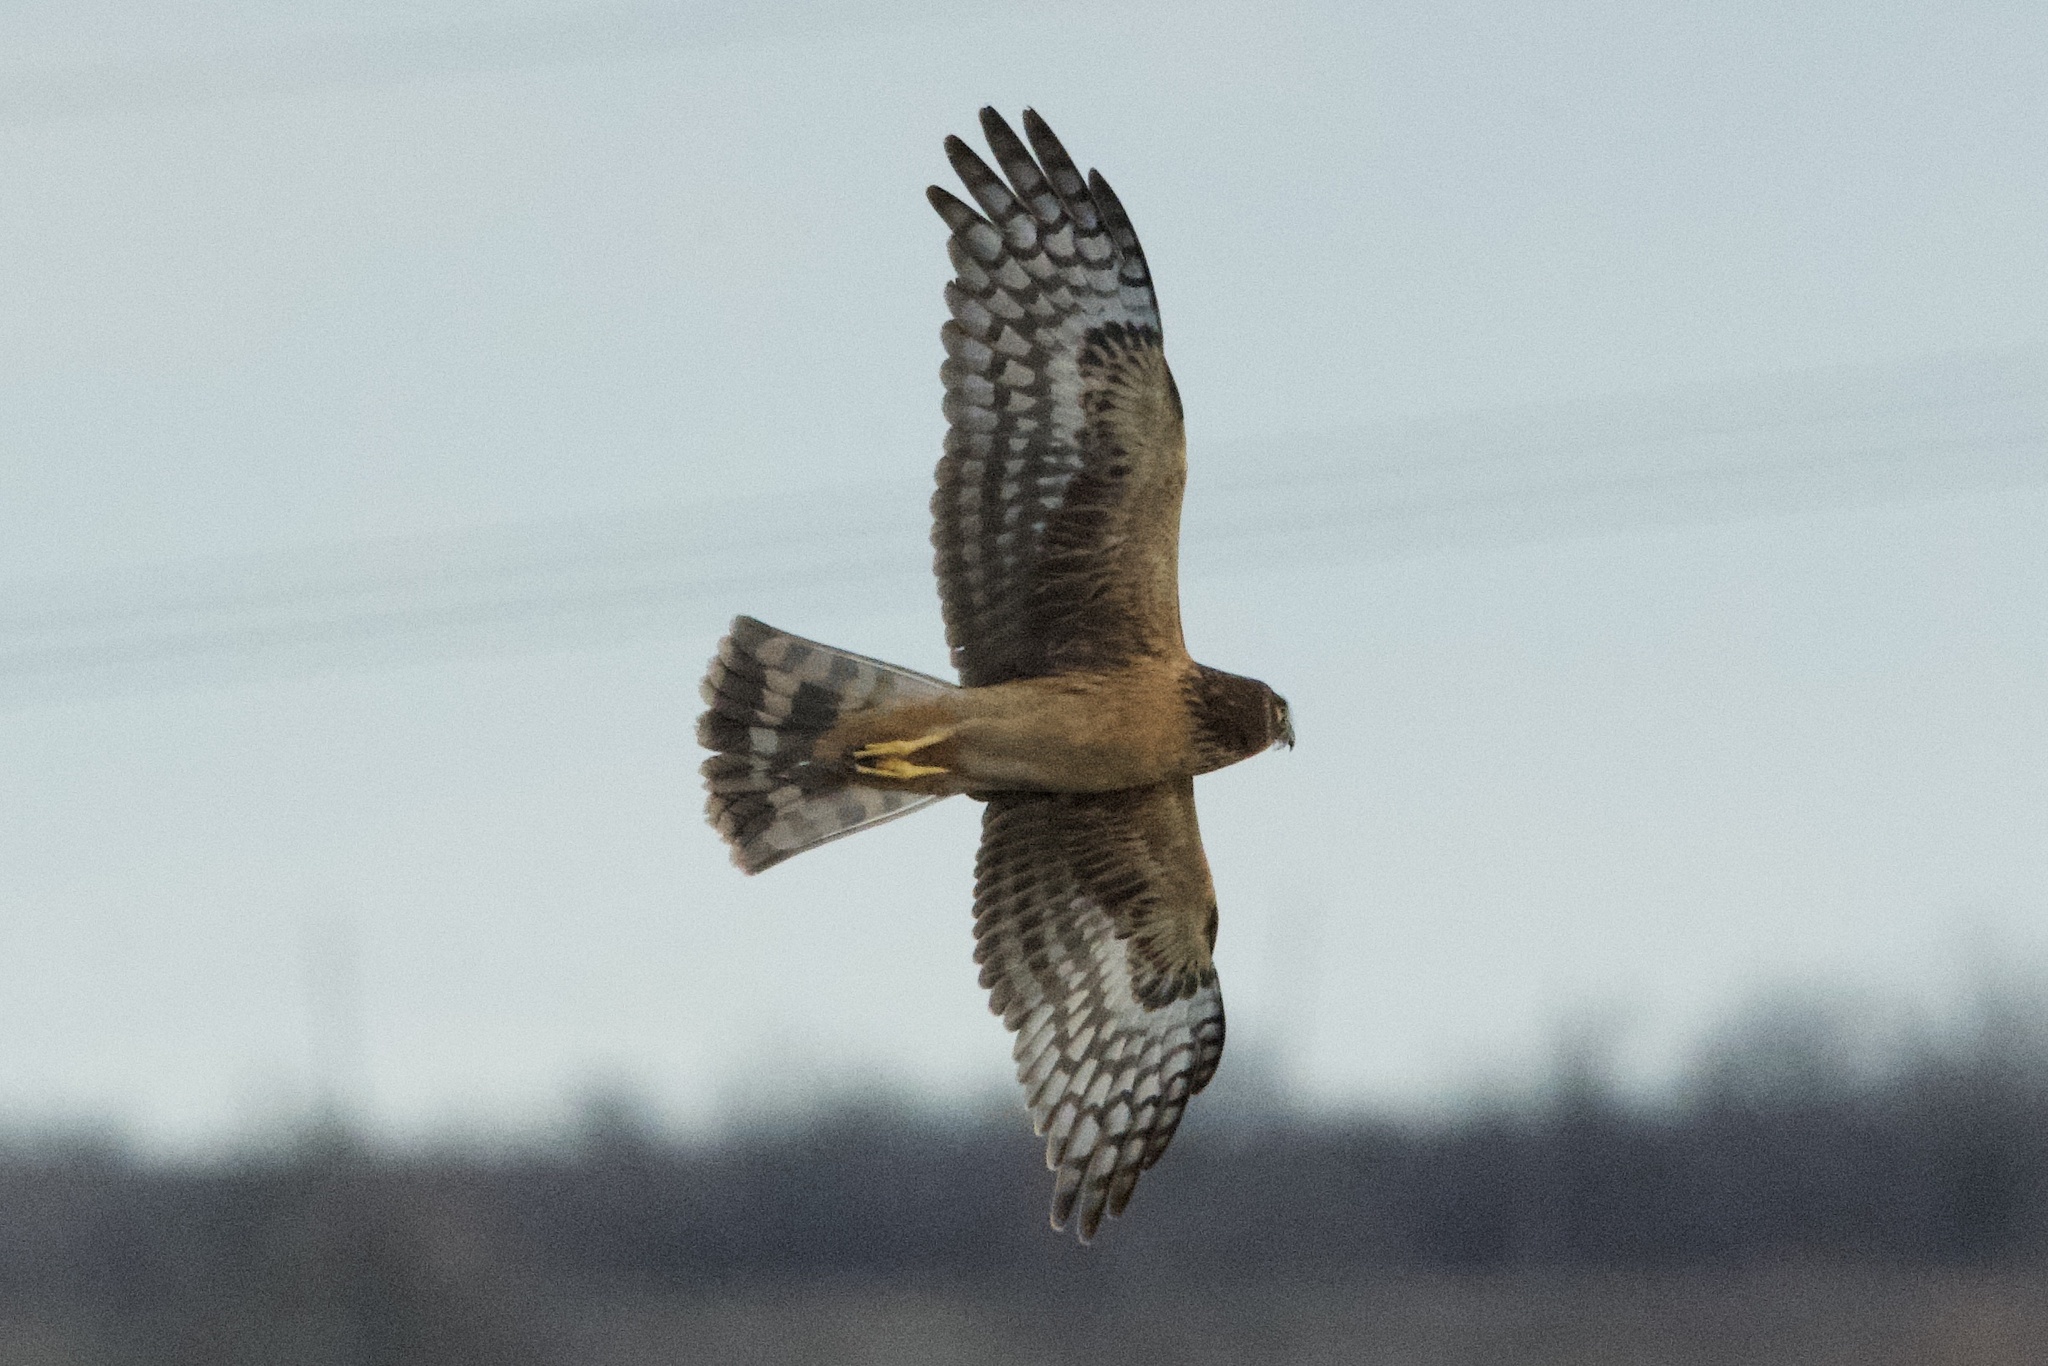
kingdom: Animalia
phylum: Chordata
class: Aves
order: Accipitriformes
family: Accipitridae
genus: Circus
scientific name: Circus cyaneus
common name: Hen harrier
